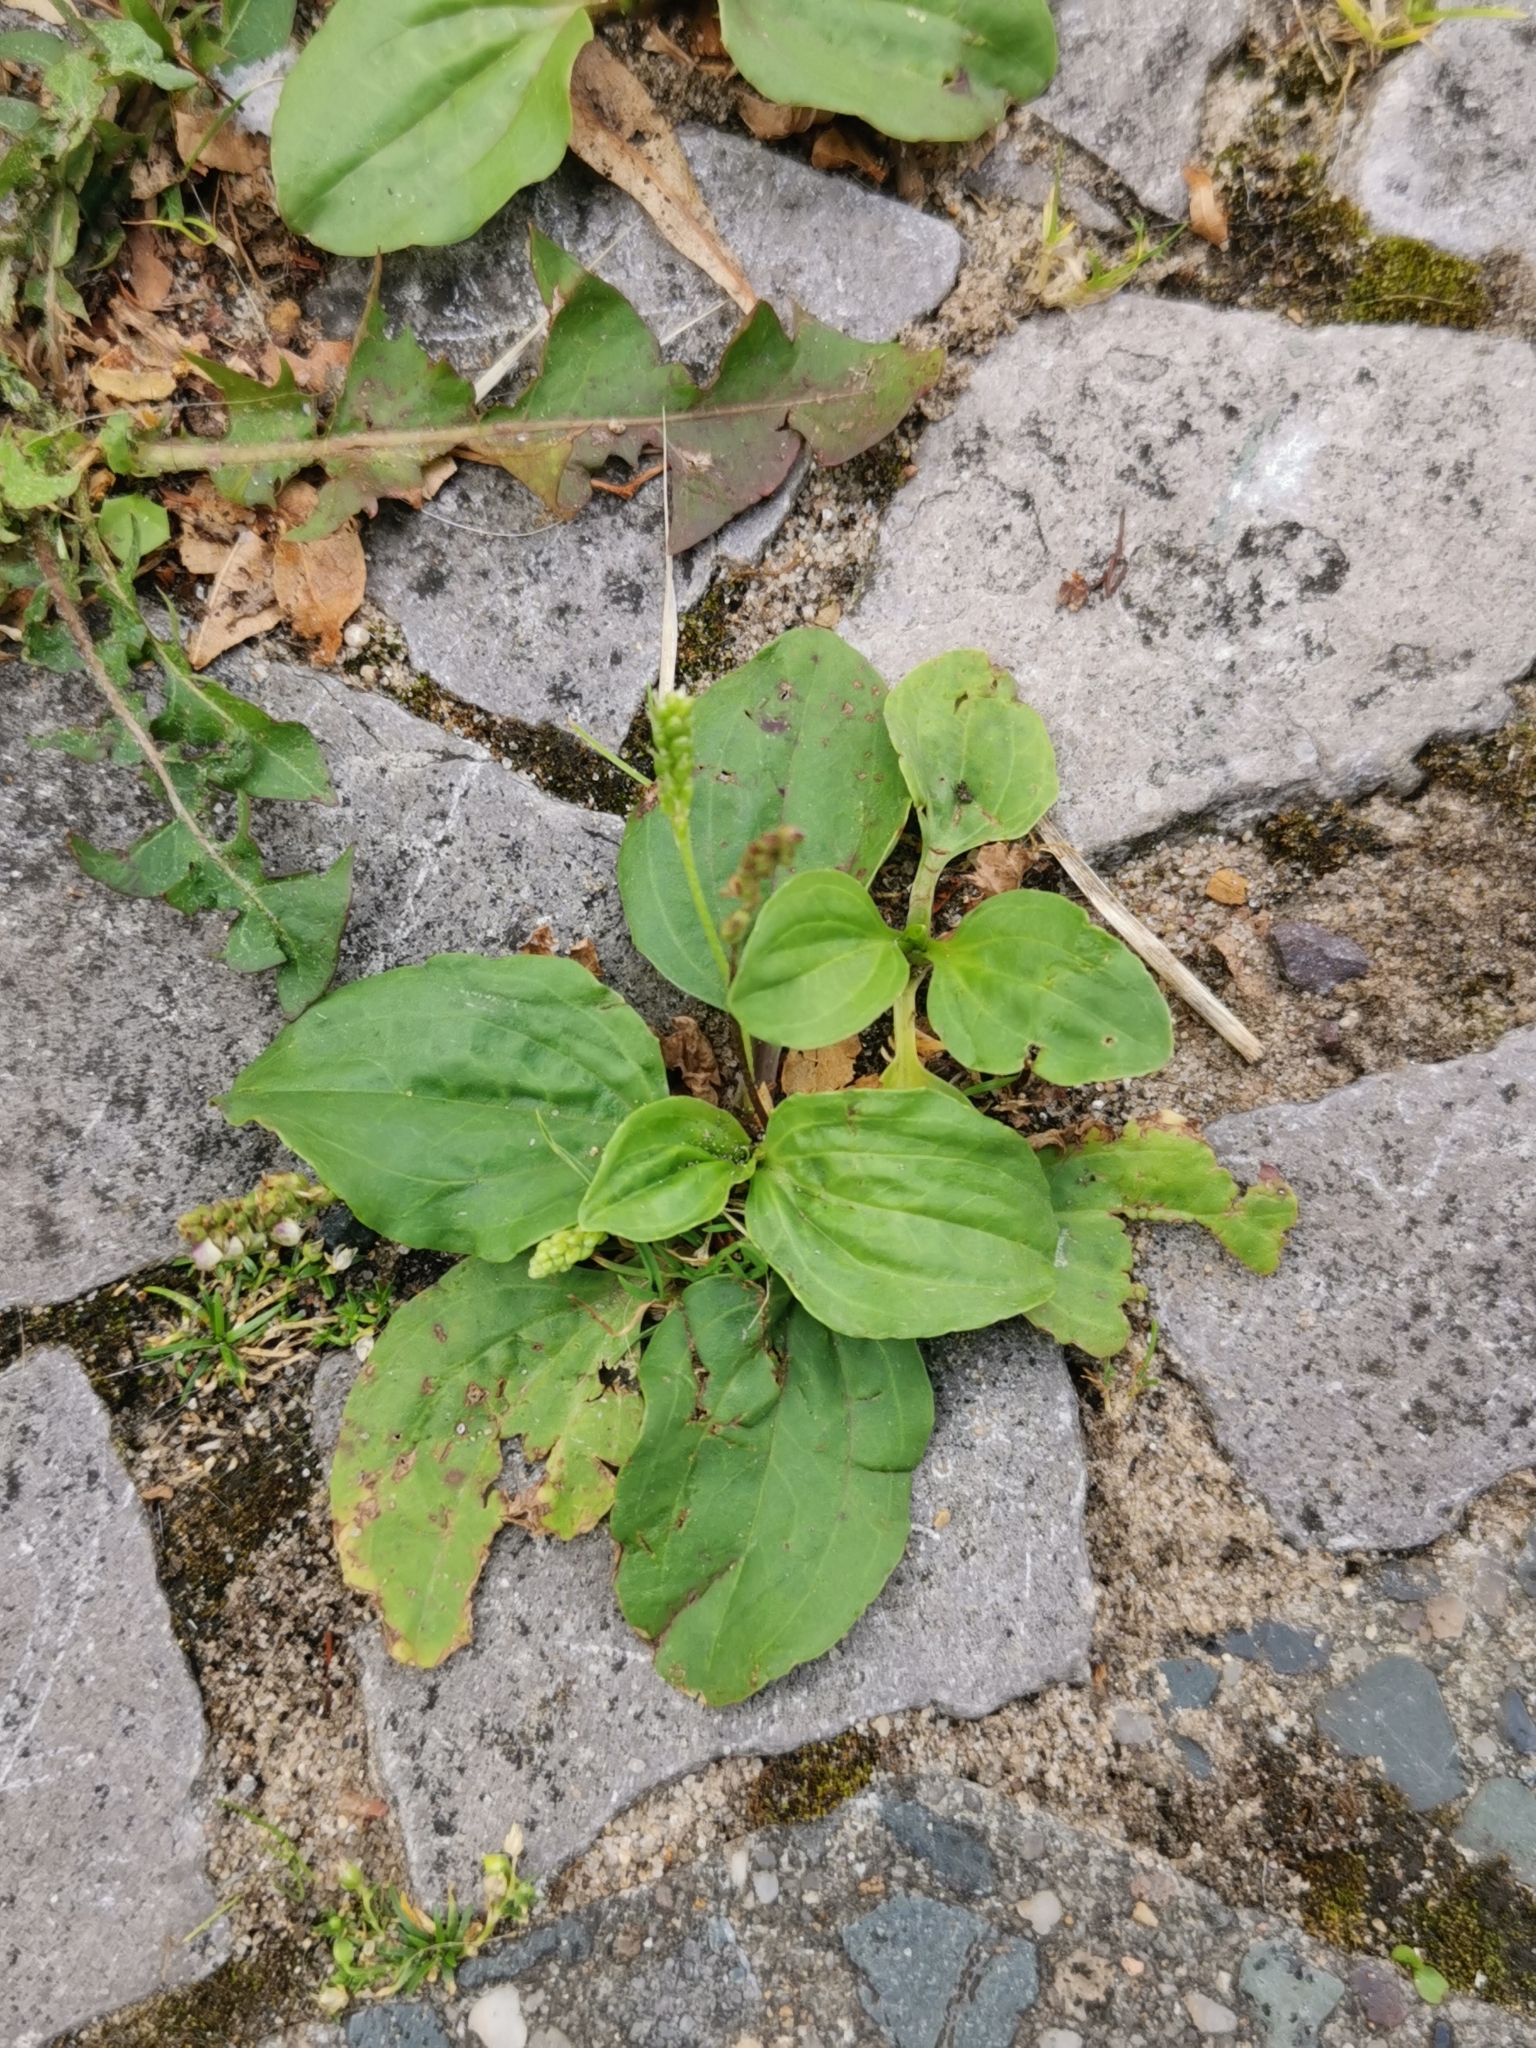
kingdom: Plantae
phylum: Tracheophyta
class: Magnoliopsida
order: Lamiales
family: Plantaginaceae
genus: Plantago
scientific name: Plantago major
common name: Common plantain
